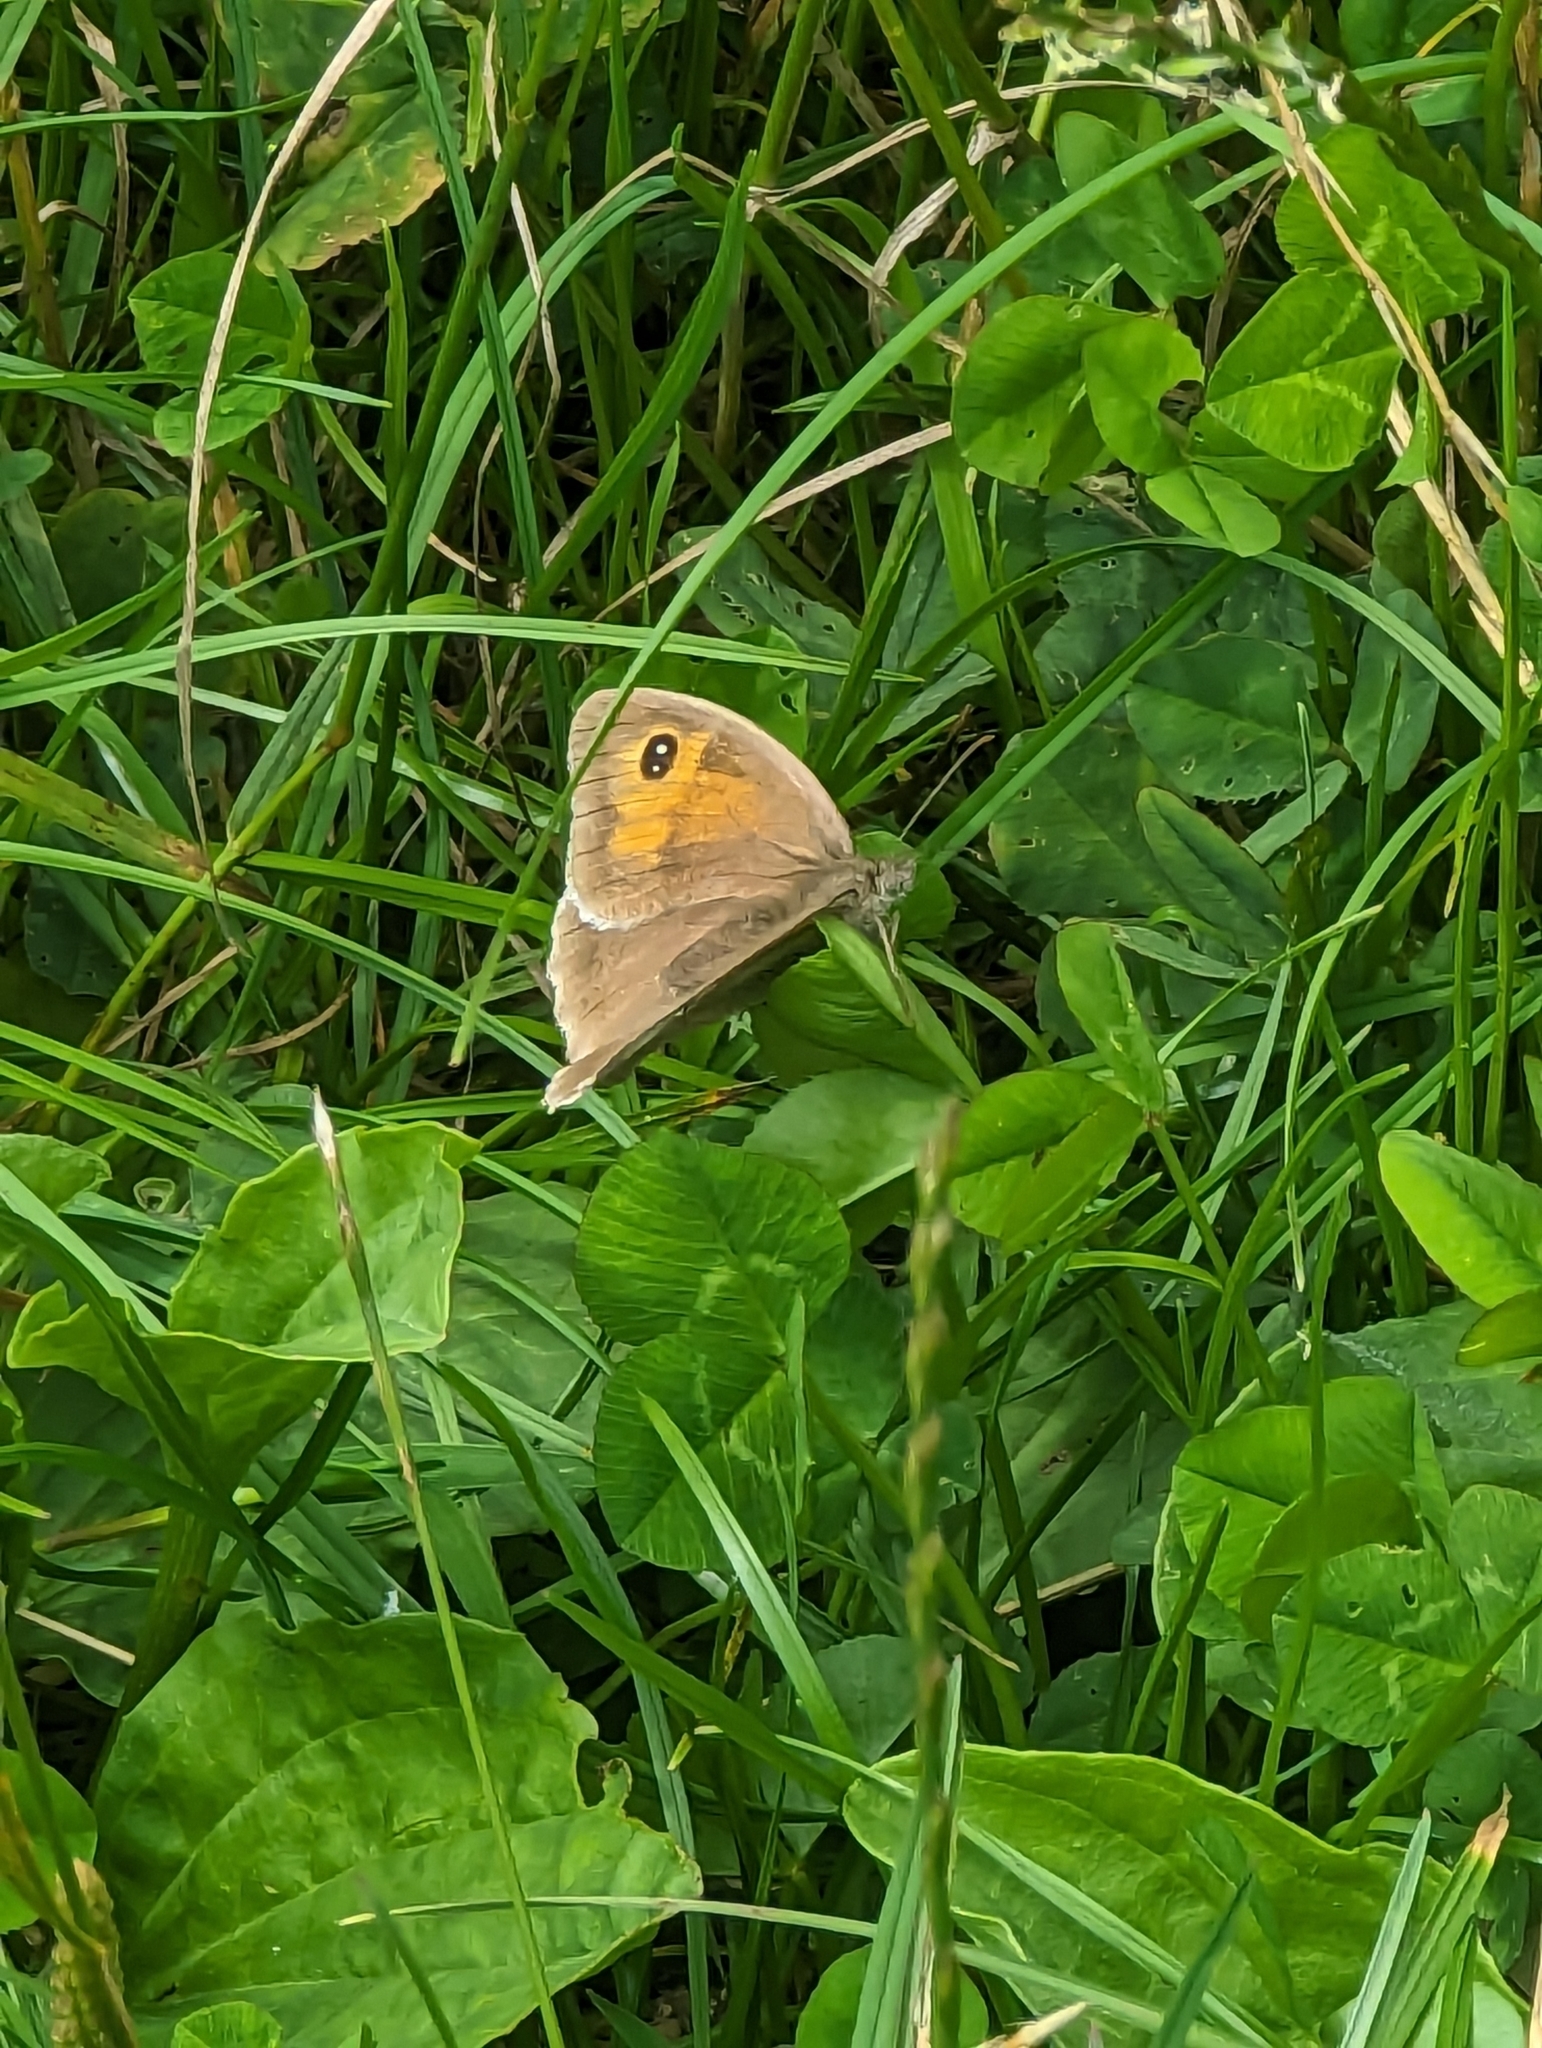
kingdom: Animalia
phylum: Arthropoda
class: Insecta
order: Lepidoptera
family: Nymphalidae
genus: Pyronia
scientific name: Pyronia tithonus
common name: Gatekeeper
